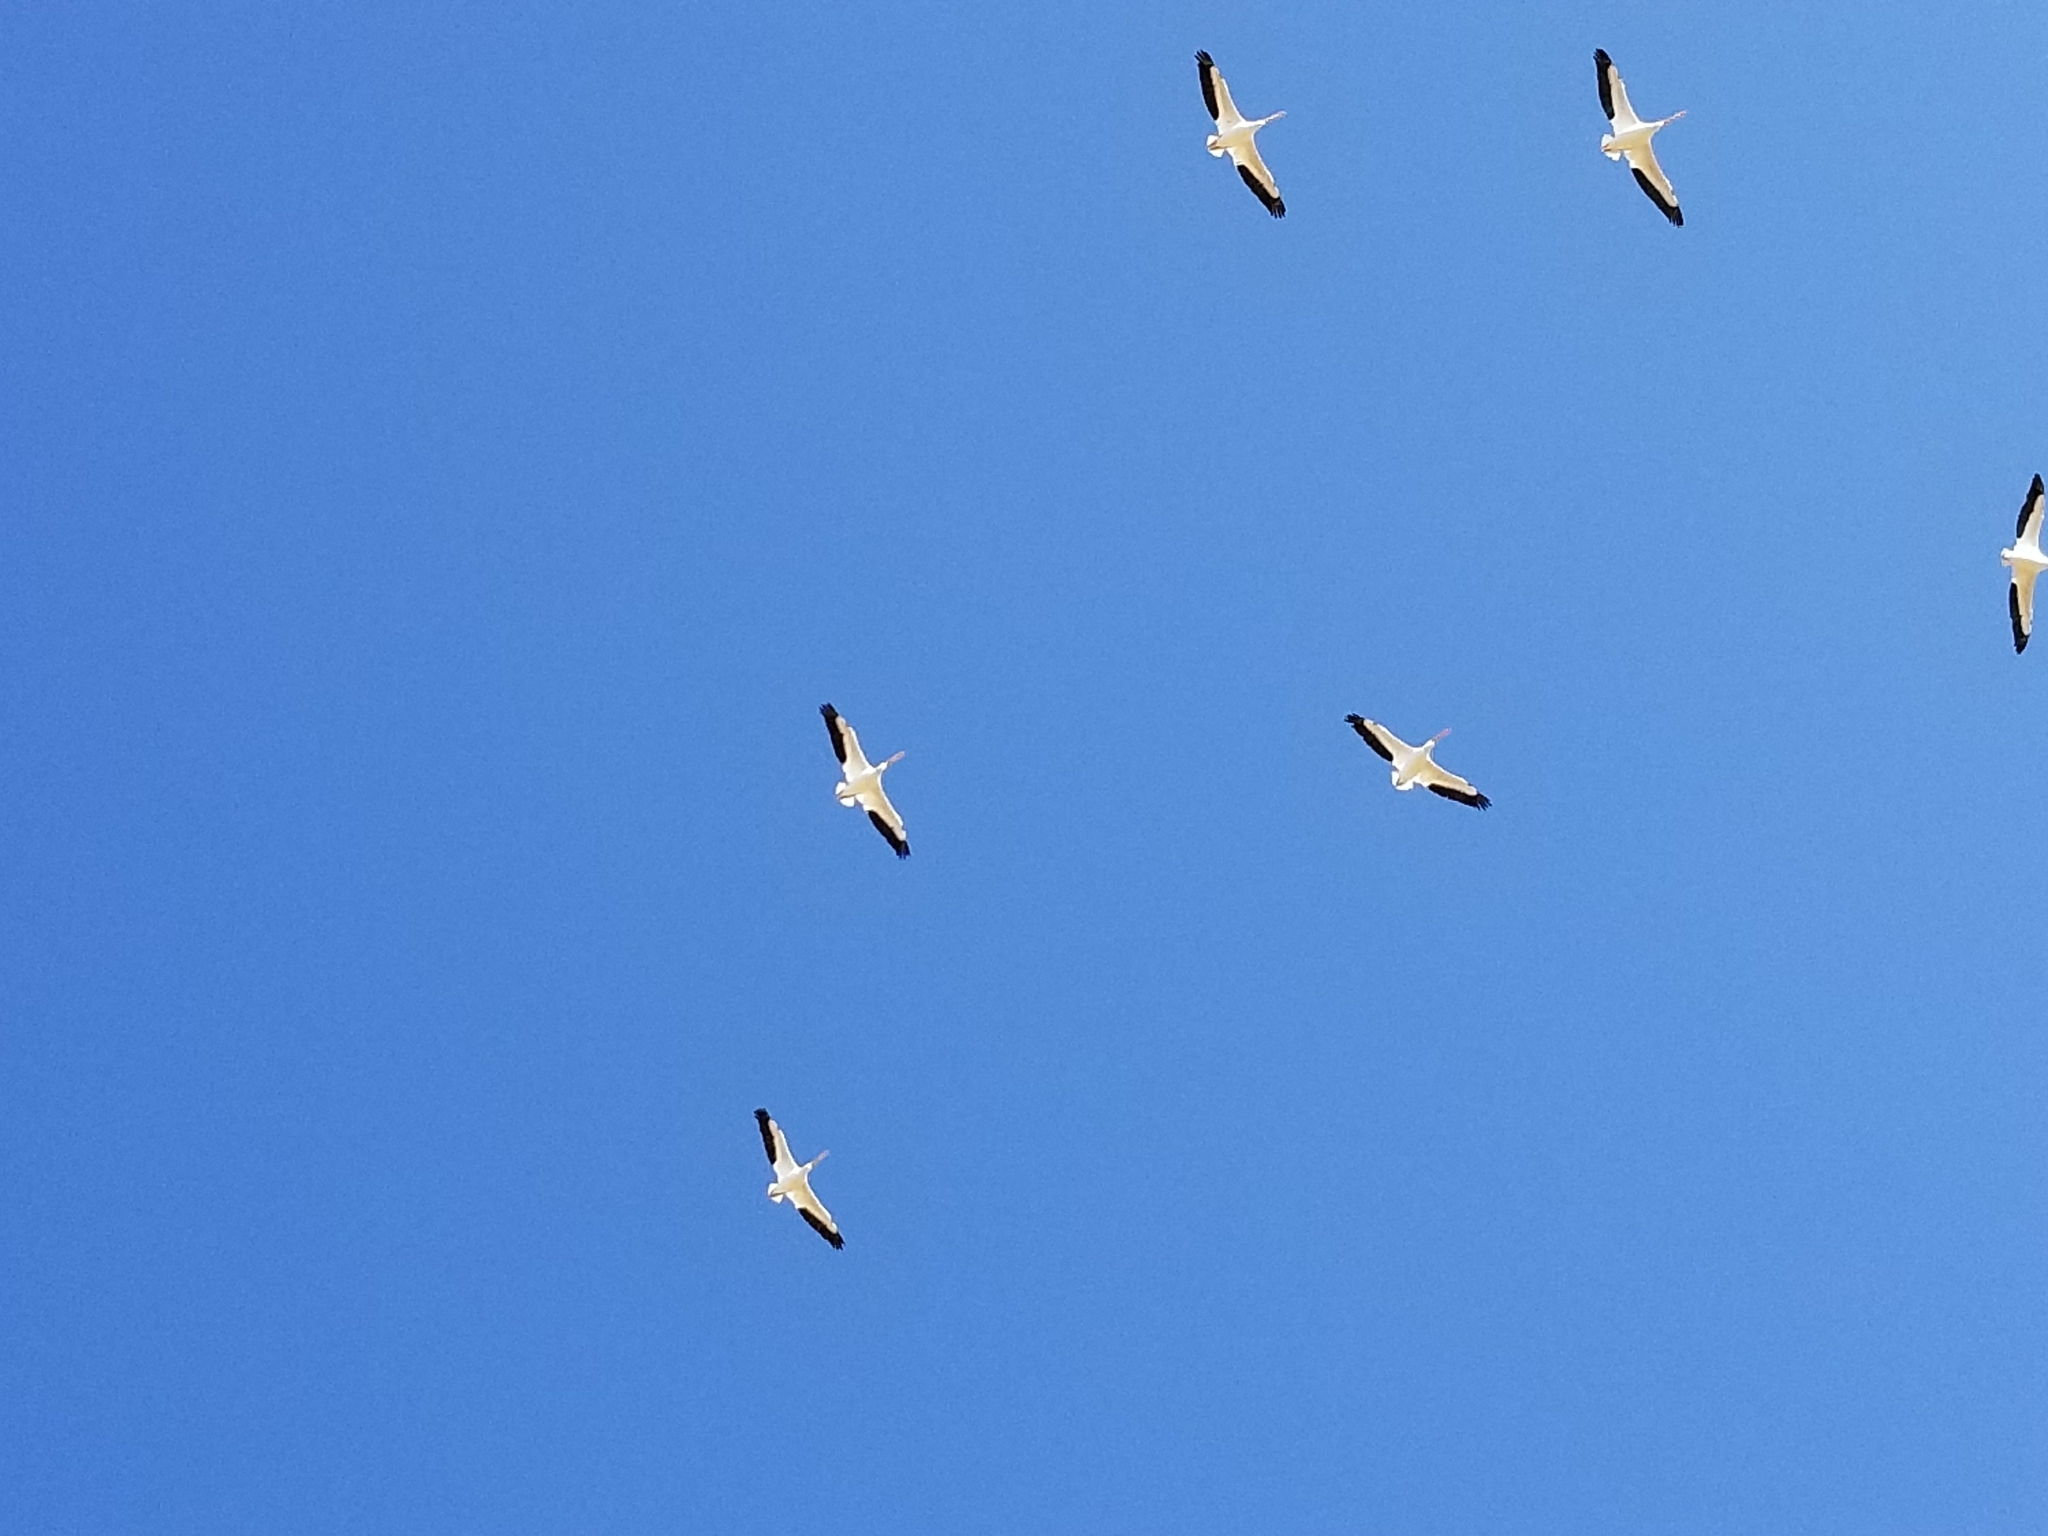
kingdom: Animalia
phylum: Chordata
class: Aves
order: Pelecaniformes
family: Pelecanidae
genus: Pelecanus
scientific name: Pelecanus erythrorhynchos
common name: American white pelican
